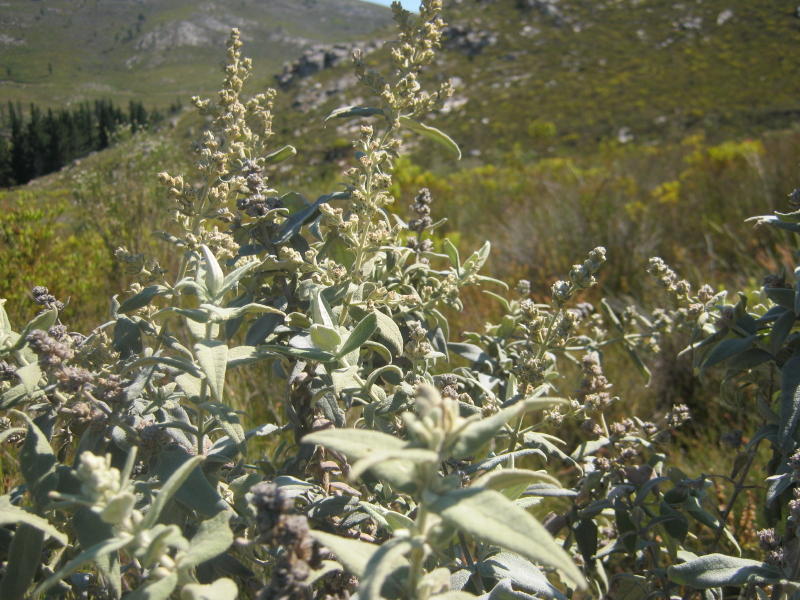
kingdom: Plantae
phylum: Tracheophyta
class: Magnoliopsida
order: Lamiales
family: Scrophulariaceae
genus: Buddleja
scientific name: Buddleja salviifolia
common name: Sagewood
